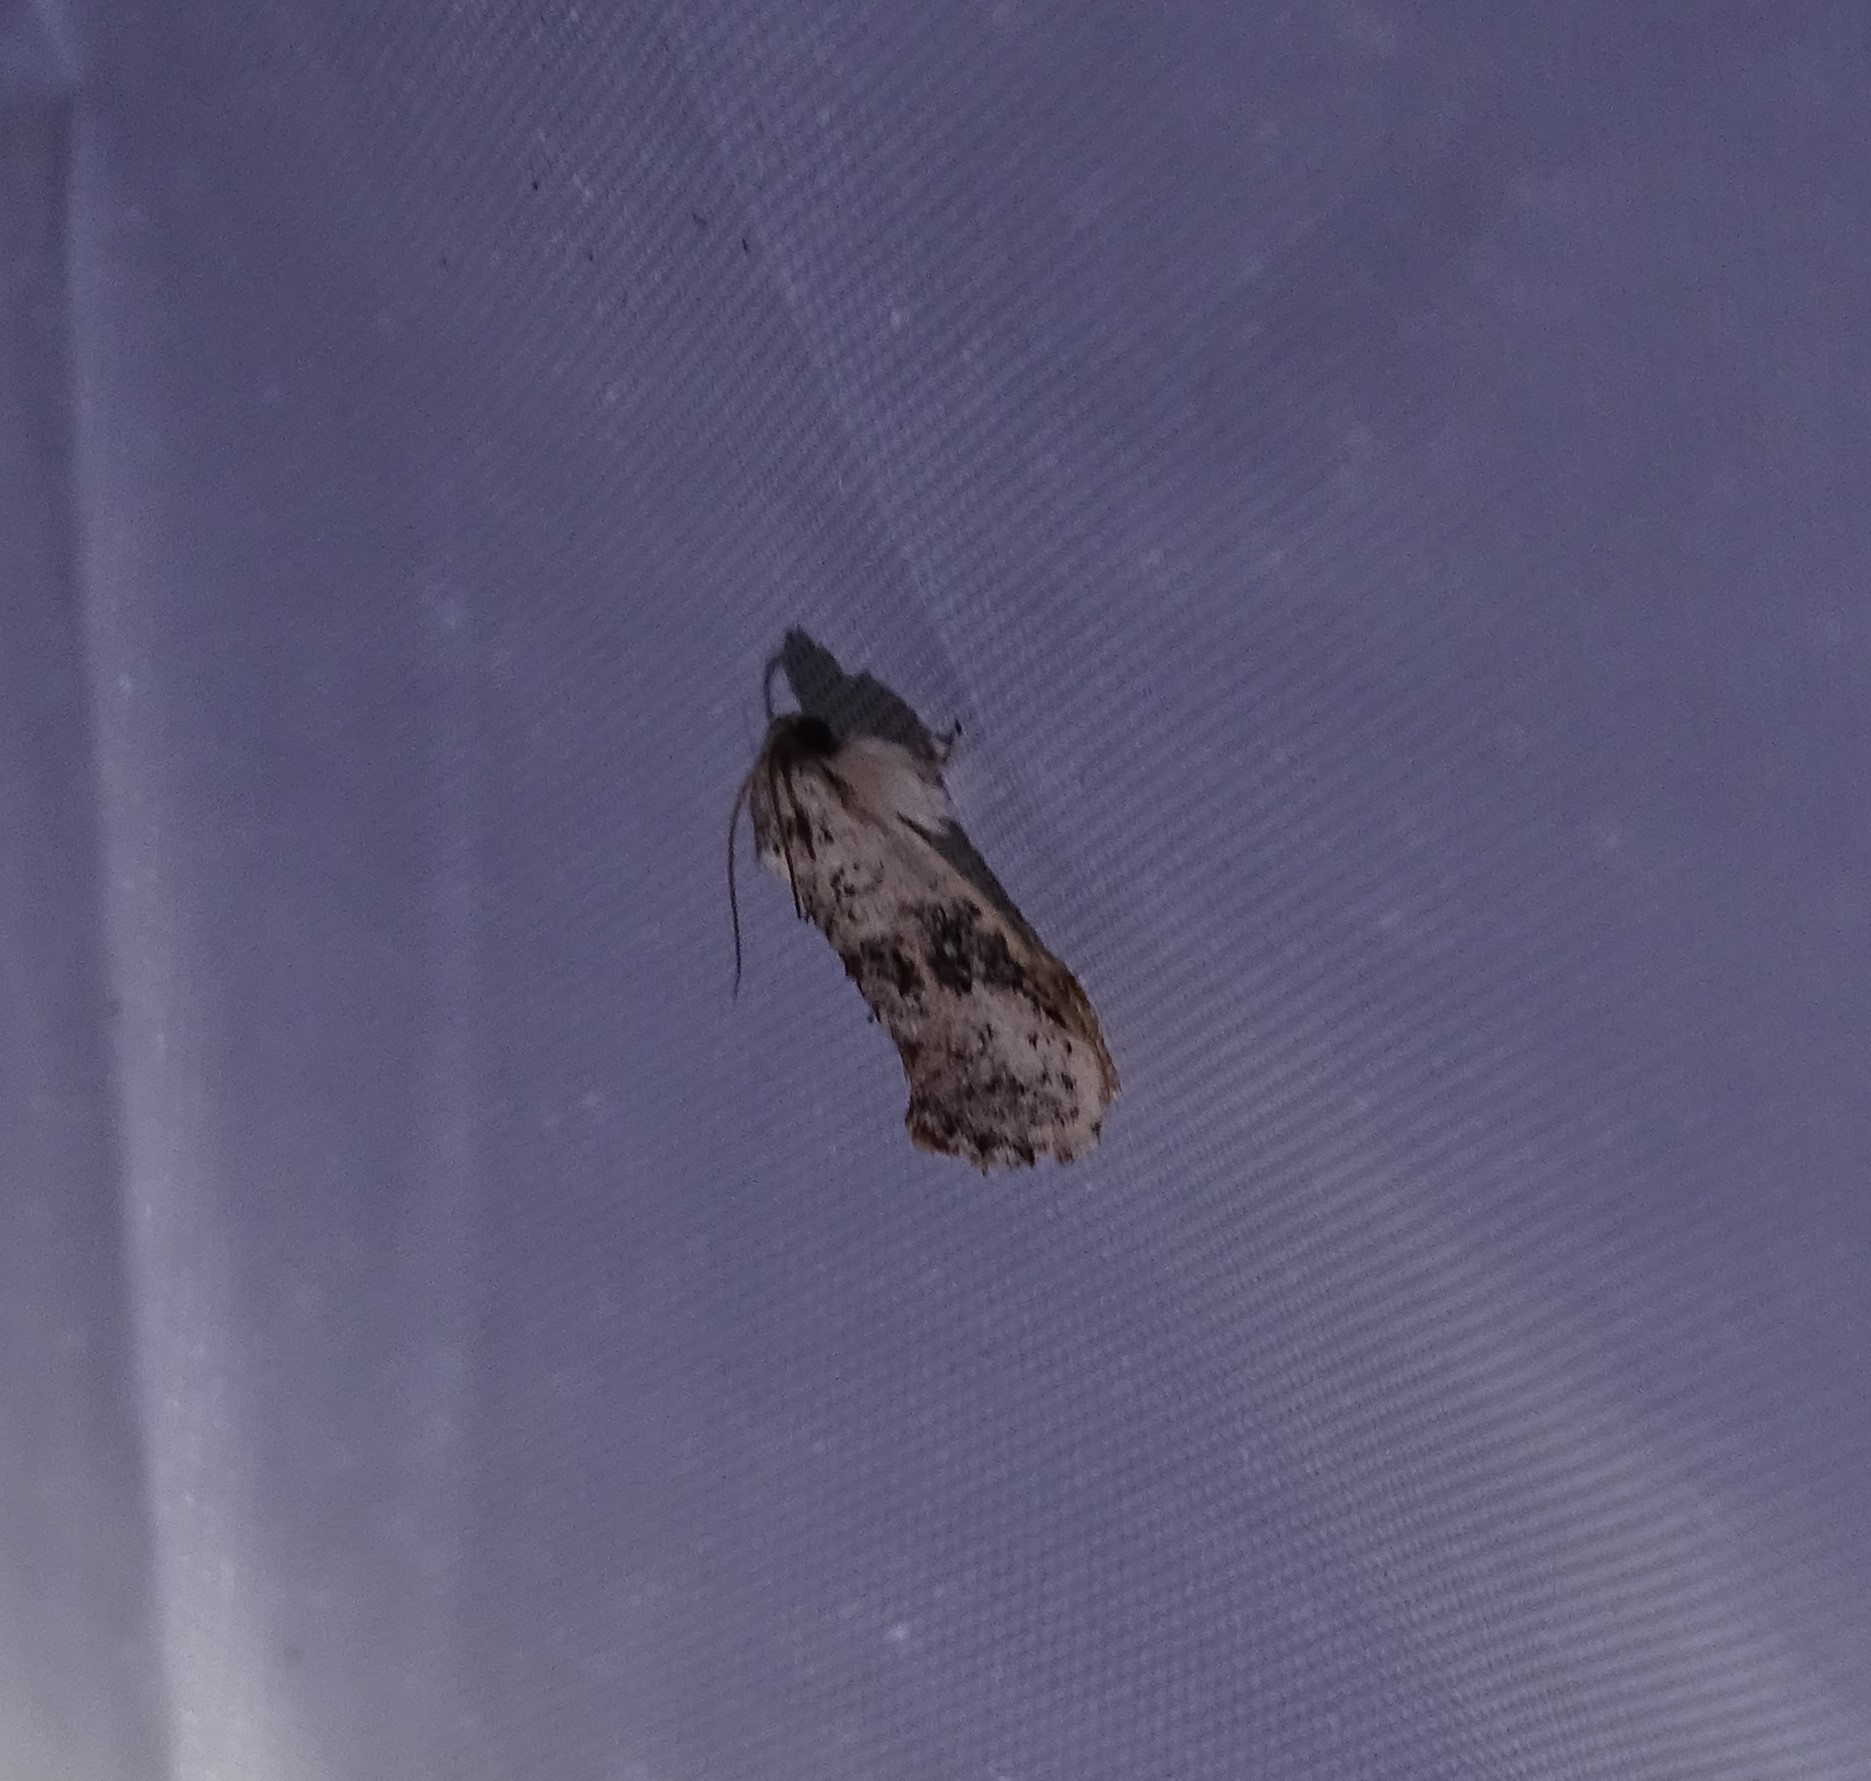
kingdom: Animalia
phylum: Arthropoda
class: Insecta
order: Lepidoptera
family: Tineidae
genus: Acrolophus
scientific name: Acrolophus mycetophagus
